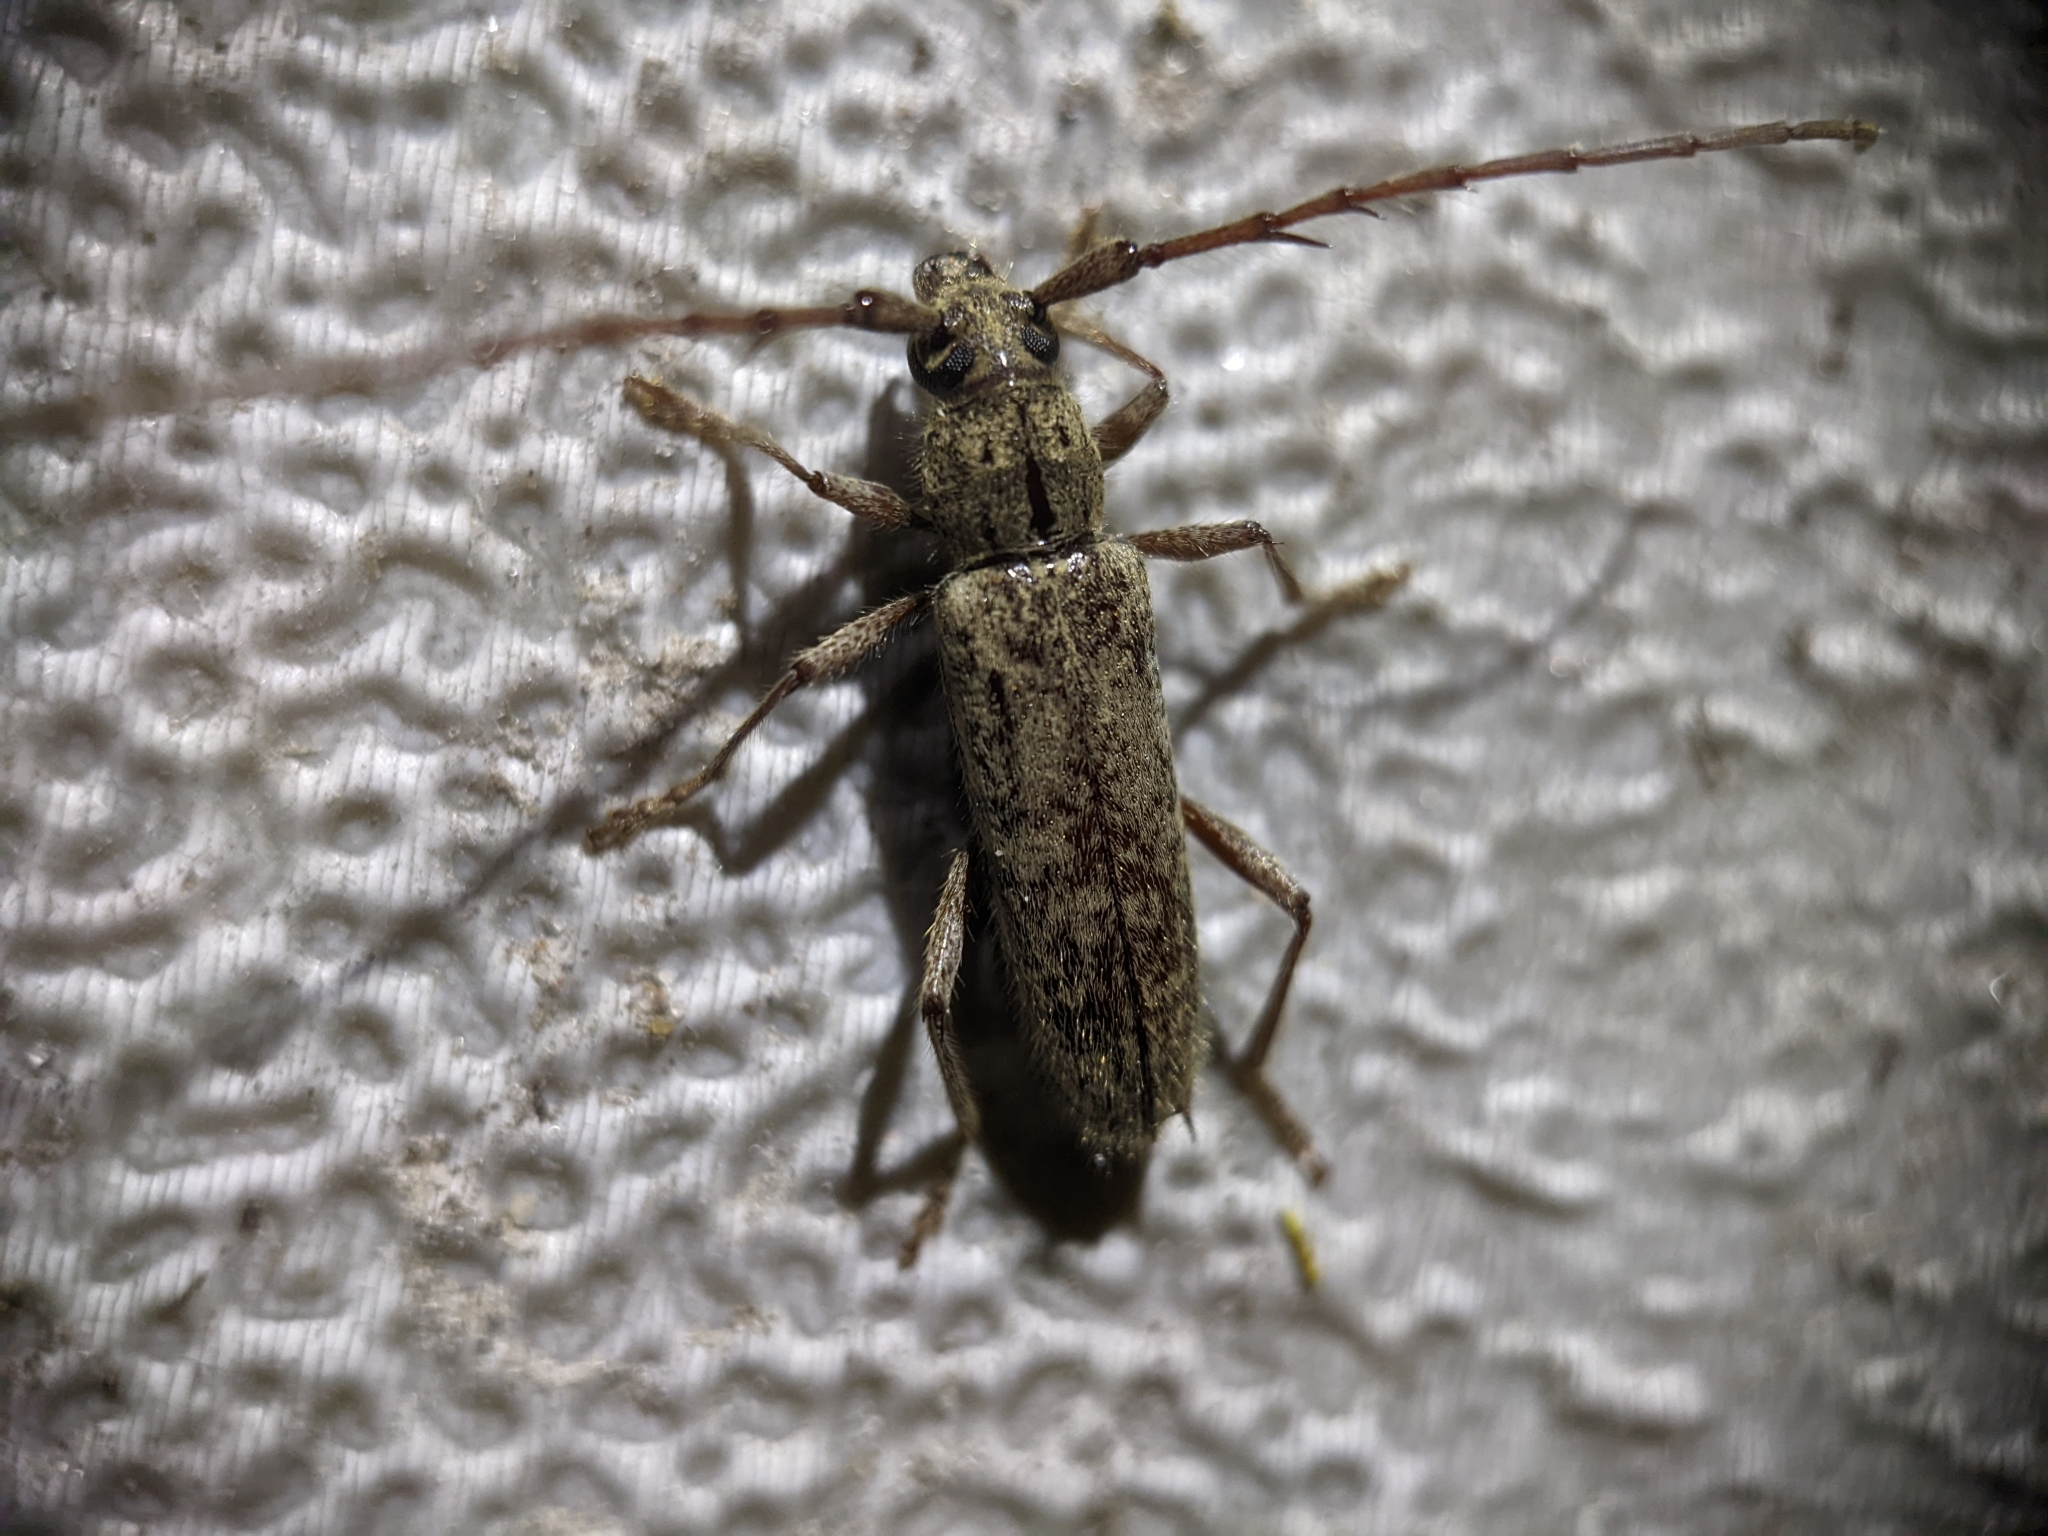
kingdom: Animalia
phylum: Arthropoda
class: Insecta
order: Coleoptera
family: Cerambycidae
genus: Elaphidion
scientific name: Elaphidion mucronatum
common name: Spined oak borer
